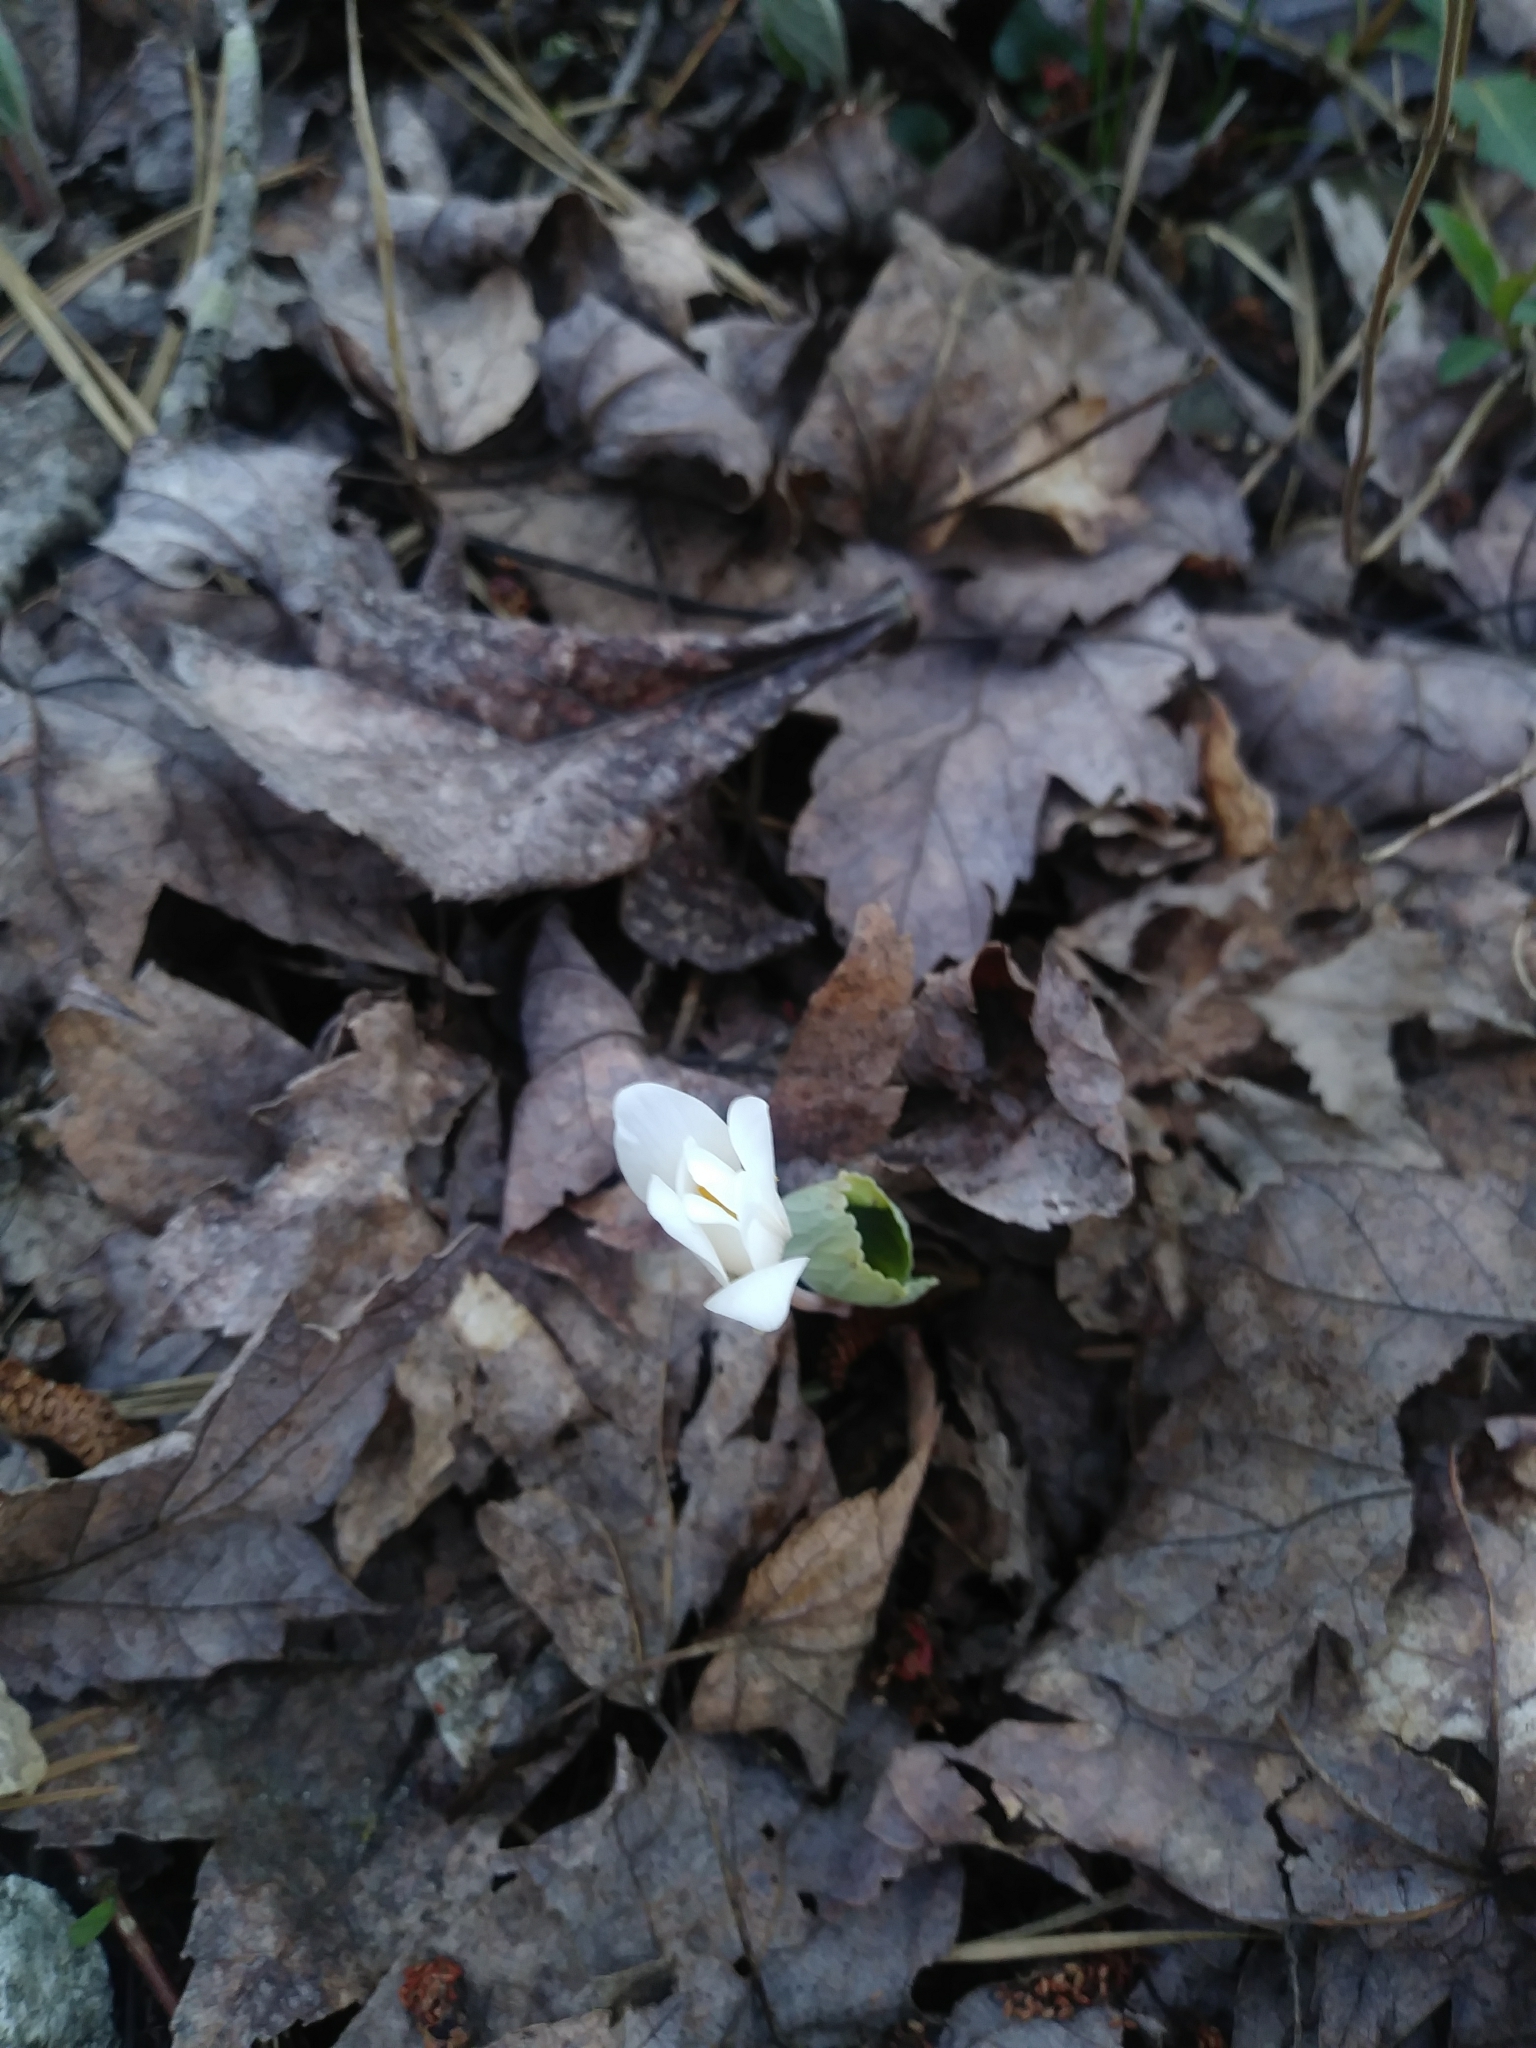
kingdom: Plantae
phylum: Tracheophyta
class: Magnoliopsida
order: Ranunculales
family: Papaveraceae
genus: Sanguinaria
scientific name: Sanguinaria canadensis
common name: Bloodroot
